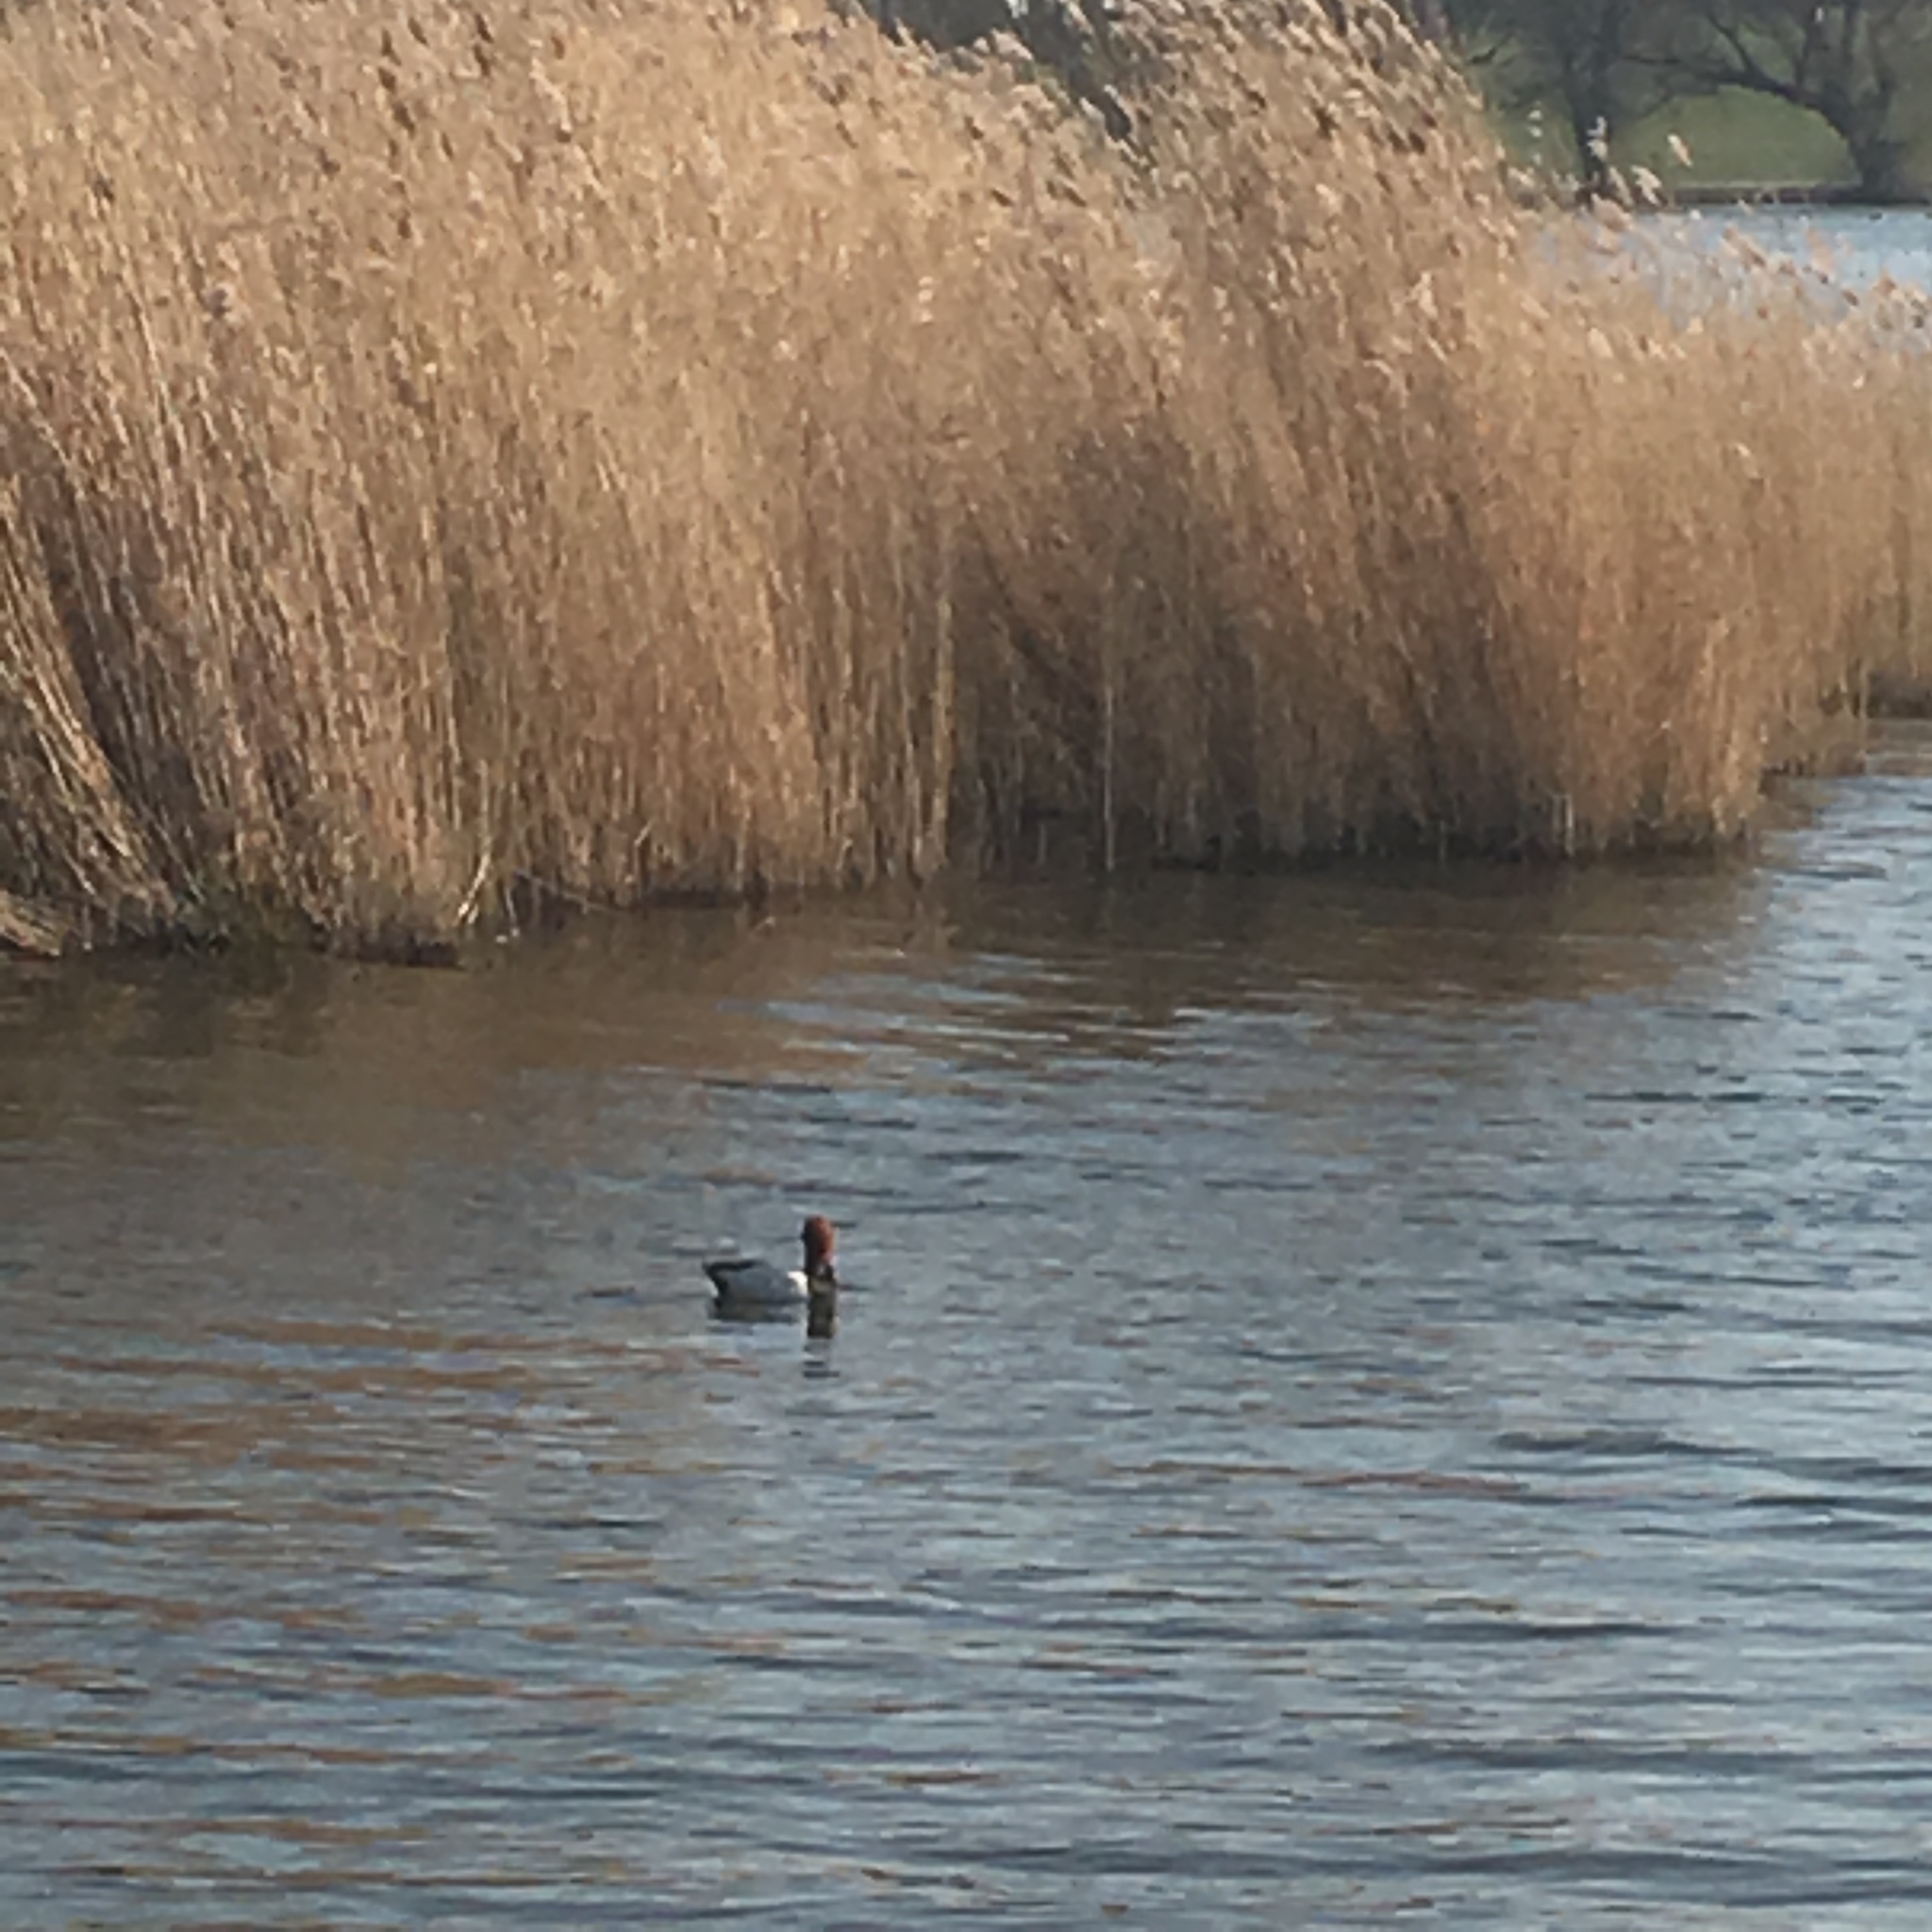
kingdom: Animalia
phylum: Chordata
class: Aves
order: Anseriformes
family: Anatidae
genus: Netta
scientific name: Netta rufina
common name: Red-crested pochard
